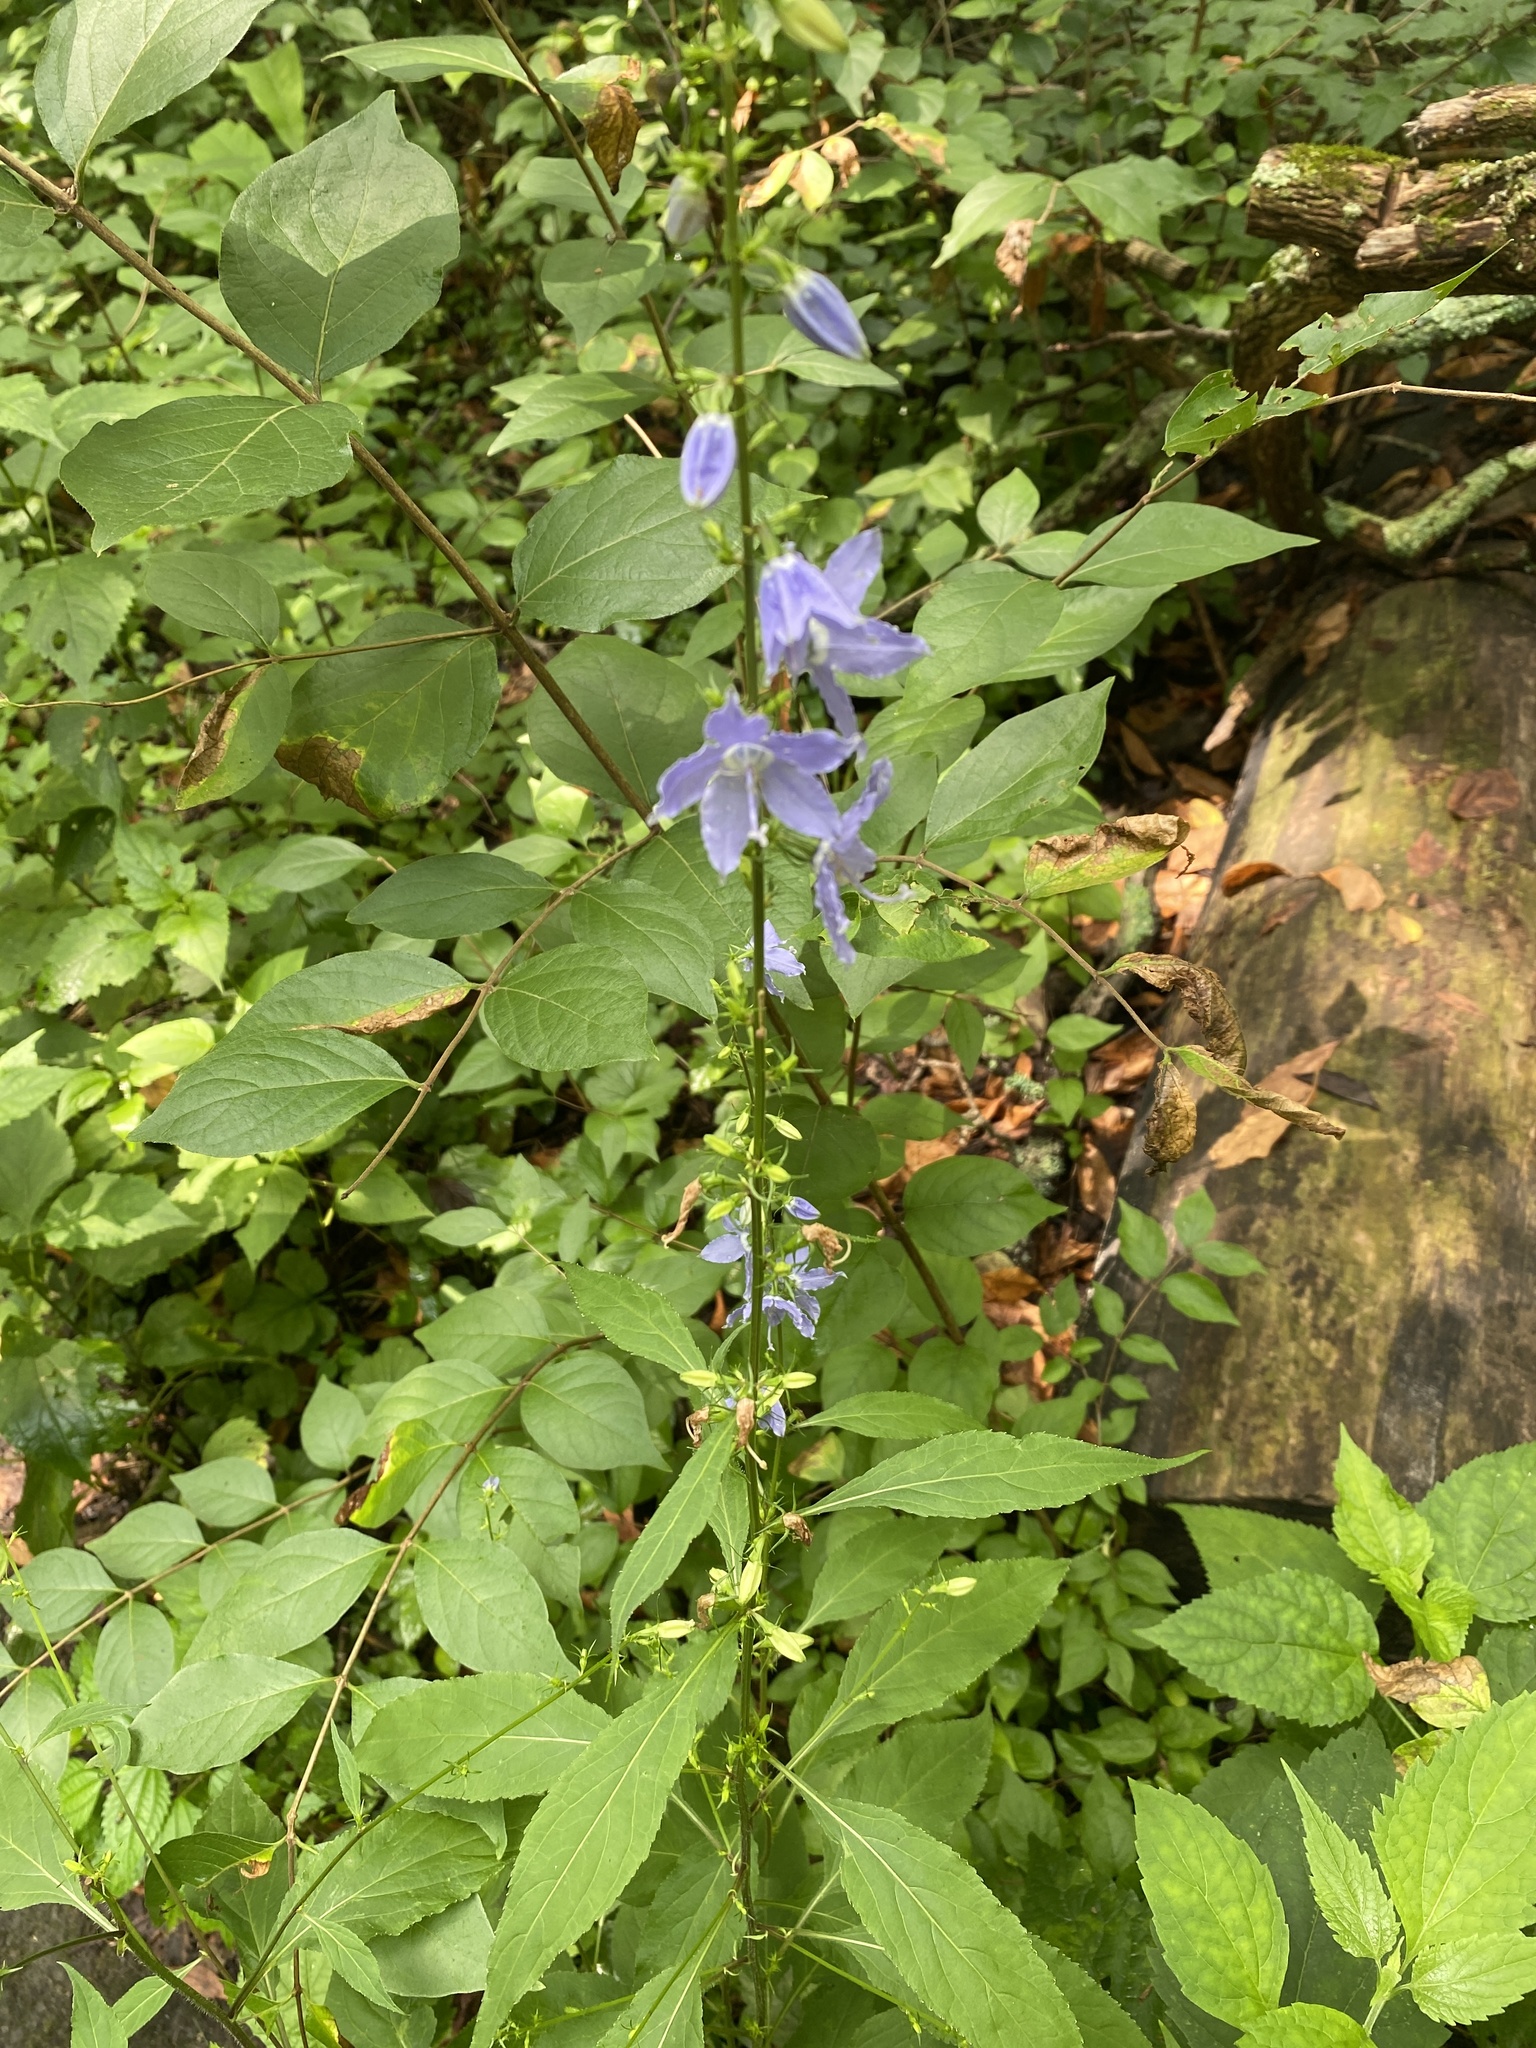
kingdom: Plantae
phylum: Tracheophyta
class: Magnoliopsida
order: Asterales
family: Campanulaceae
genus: Campanulastrum
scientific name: Campanulastrum americanum
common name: American bellflower
